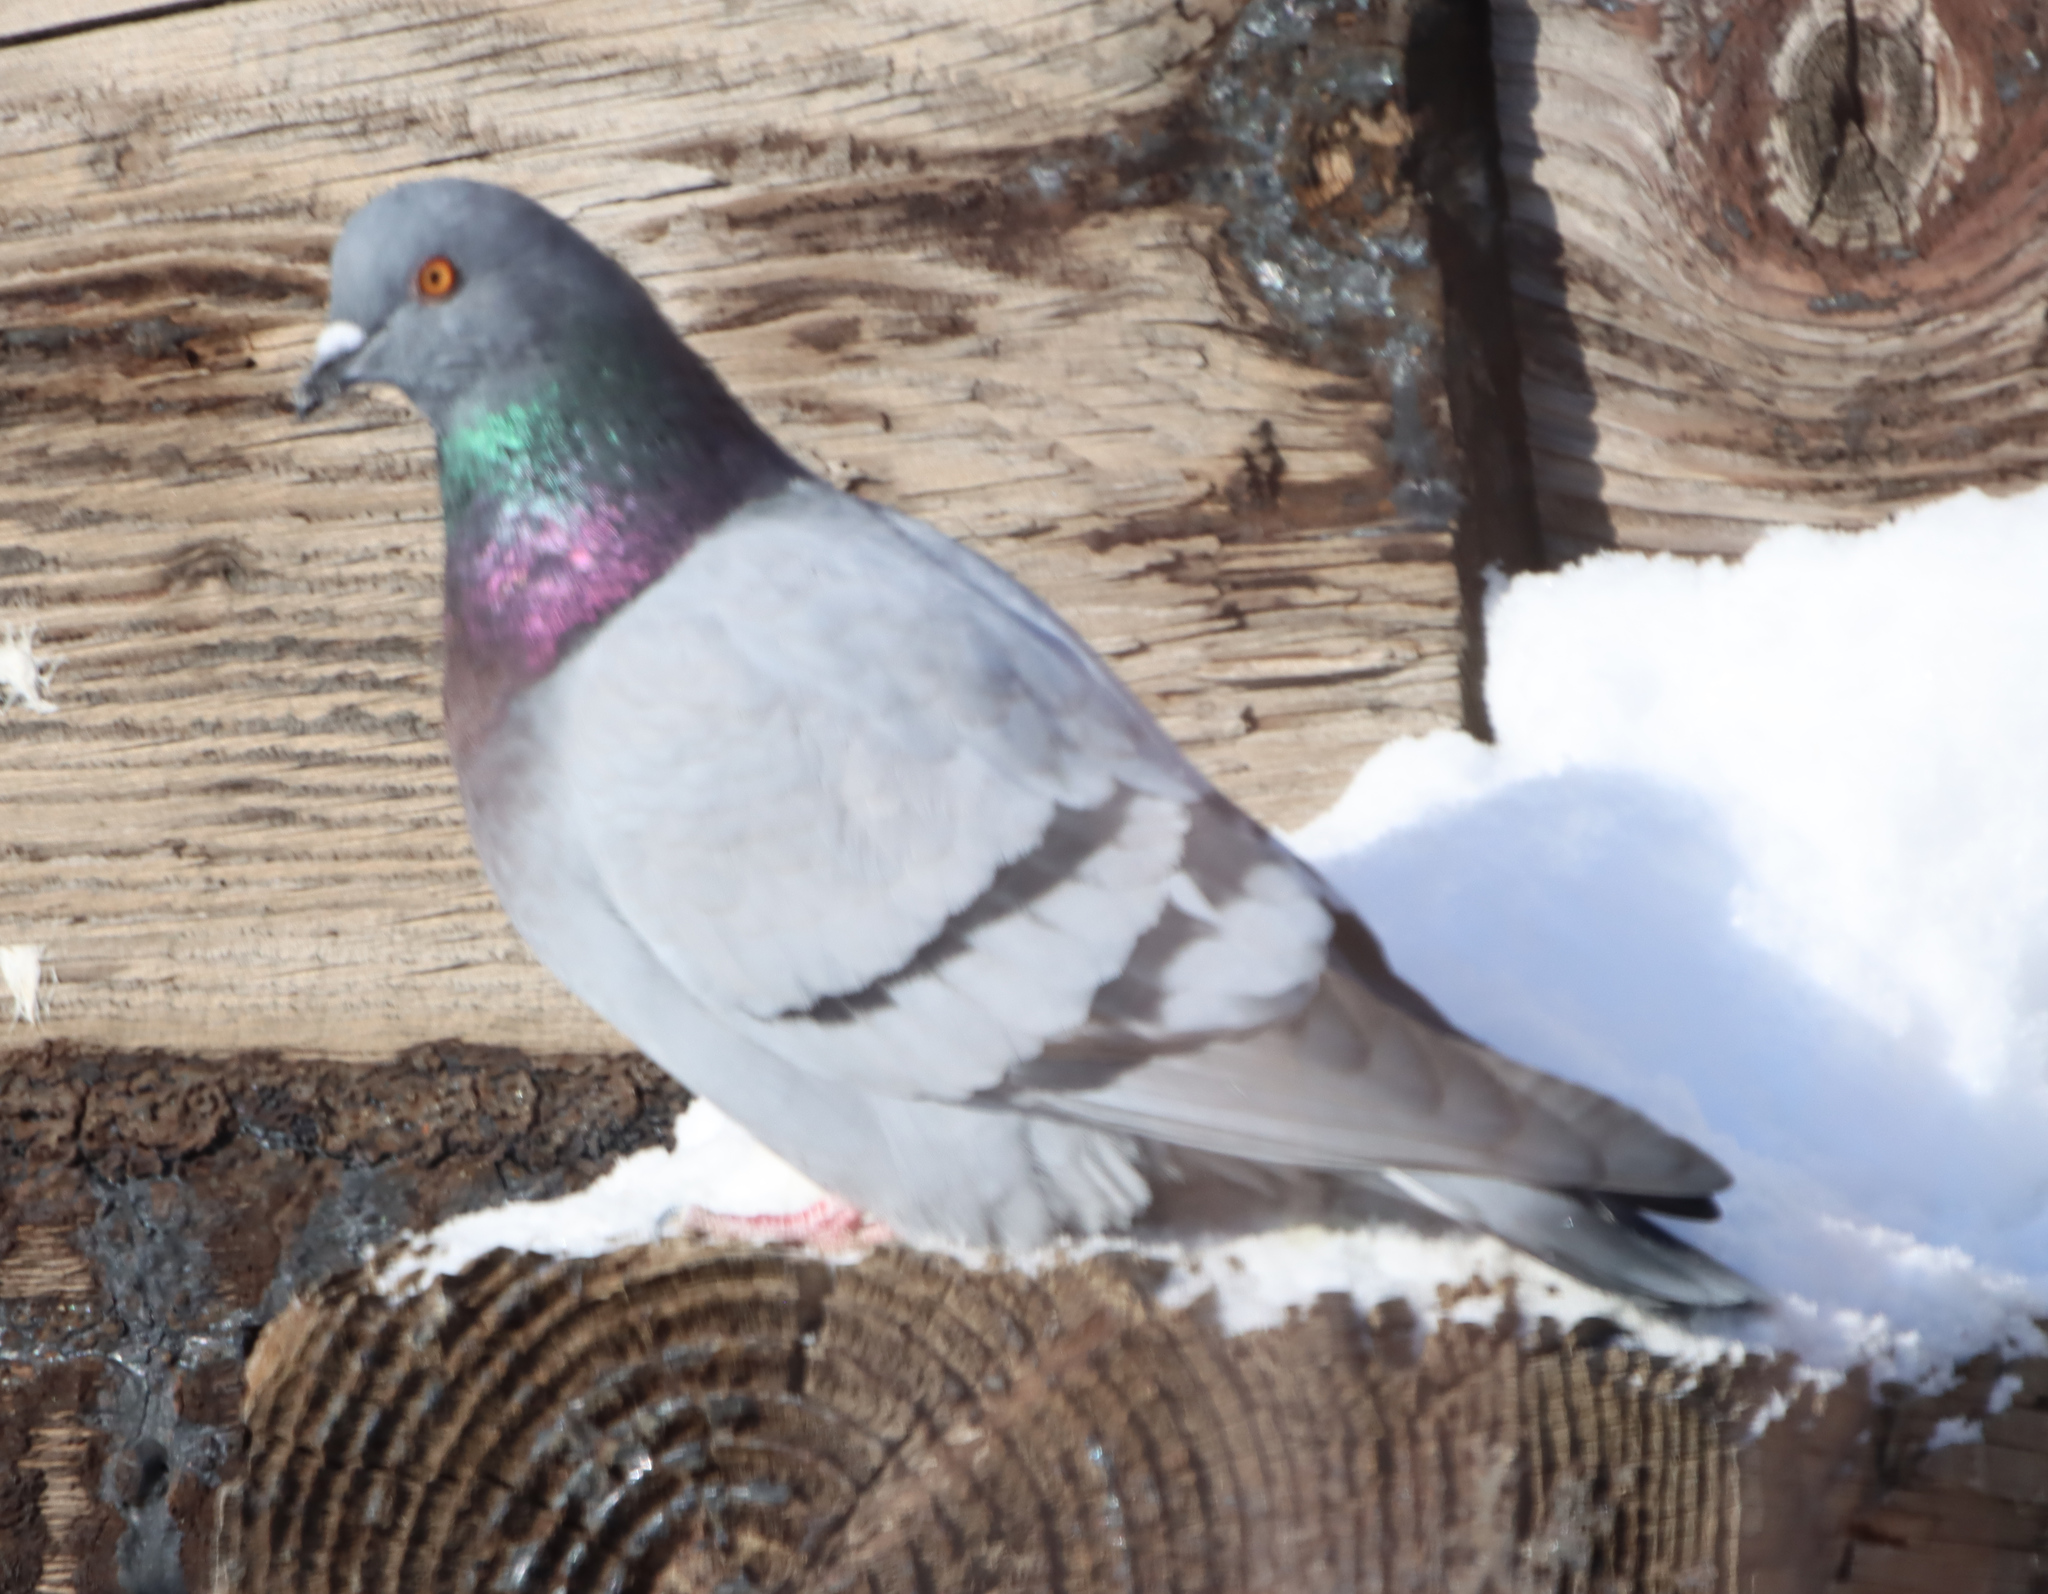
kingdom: Animalia
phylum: Chordata
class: Aves
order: Columbiformes
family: Columbidae
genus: Columba
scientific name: Columba livia
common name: Rock pigeon
